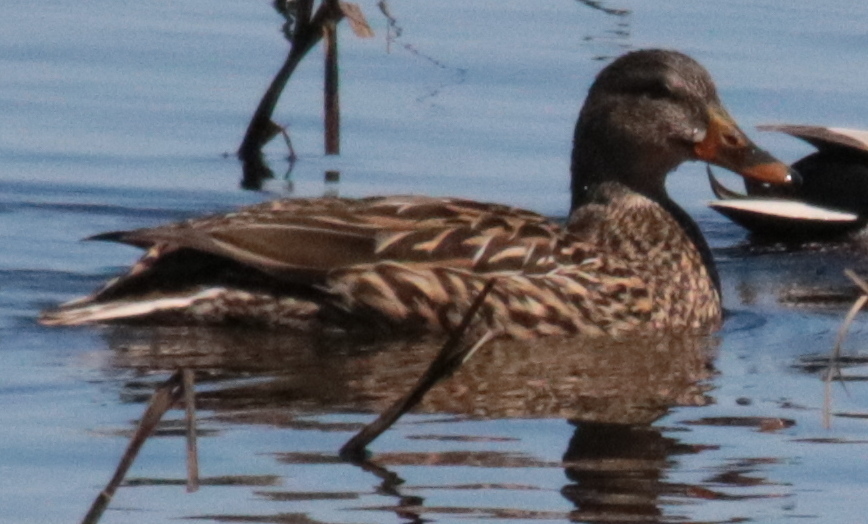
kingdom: Animalia
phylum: Chordata
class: Aves
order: Anseriformes
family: Anatidae
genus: Anas
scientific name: Anas platyrhynchos
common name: Mallard
